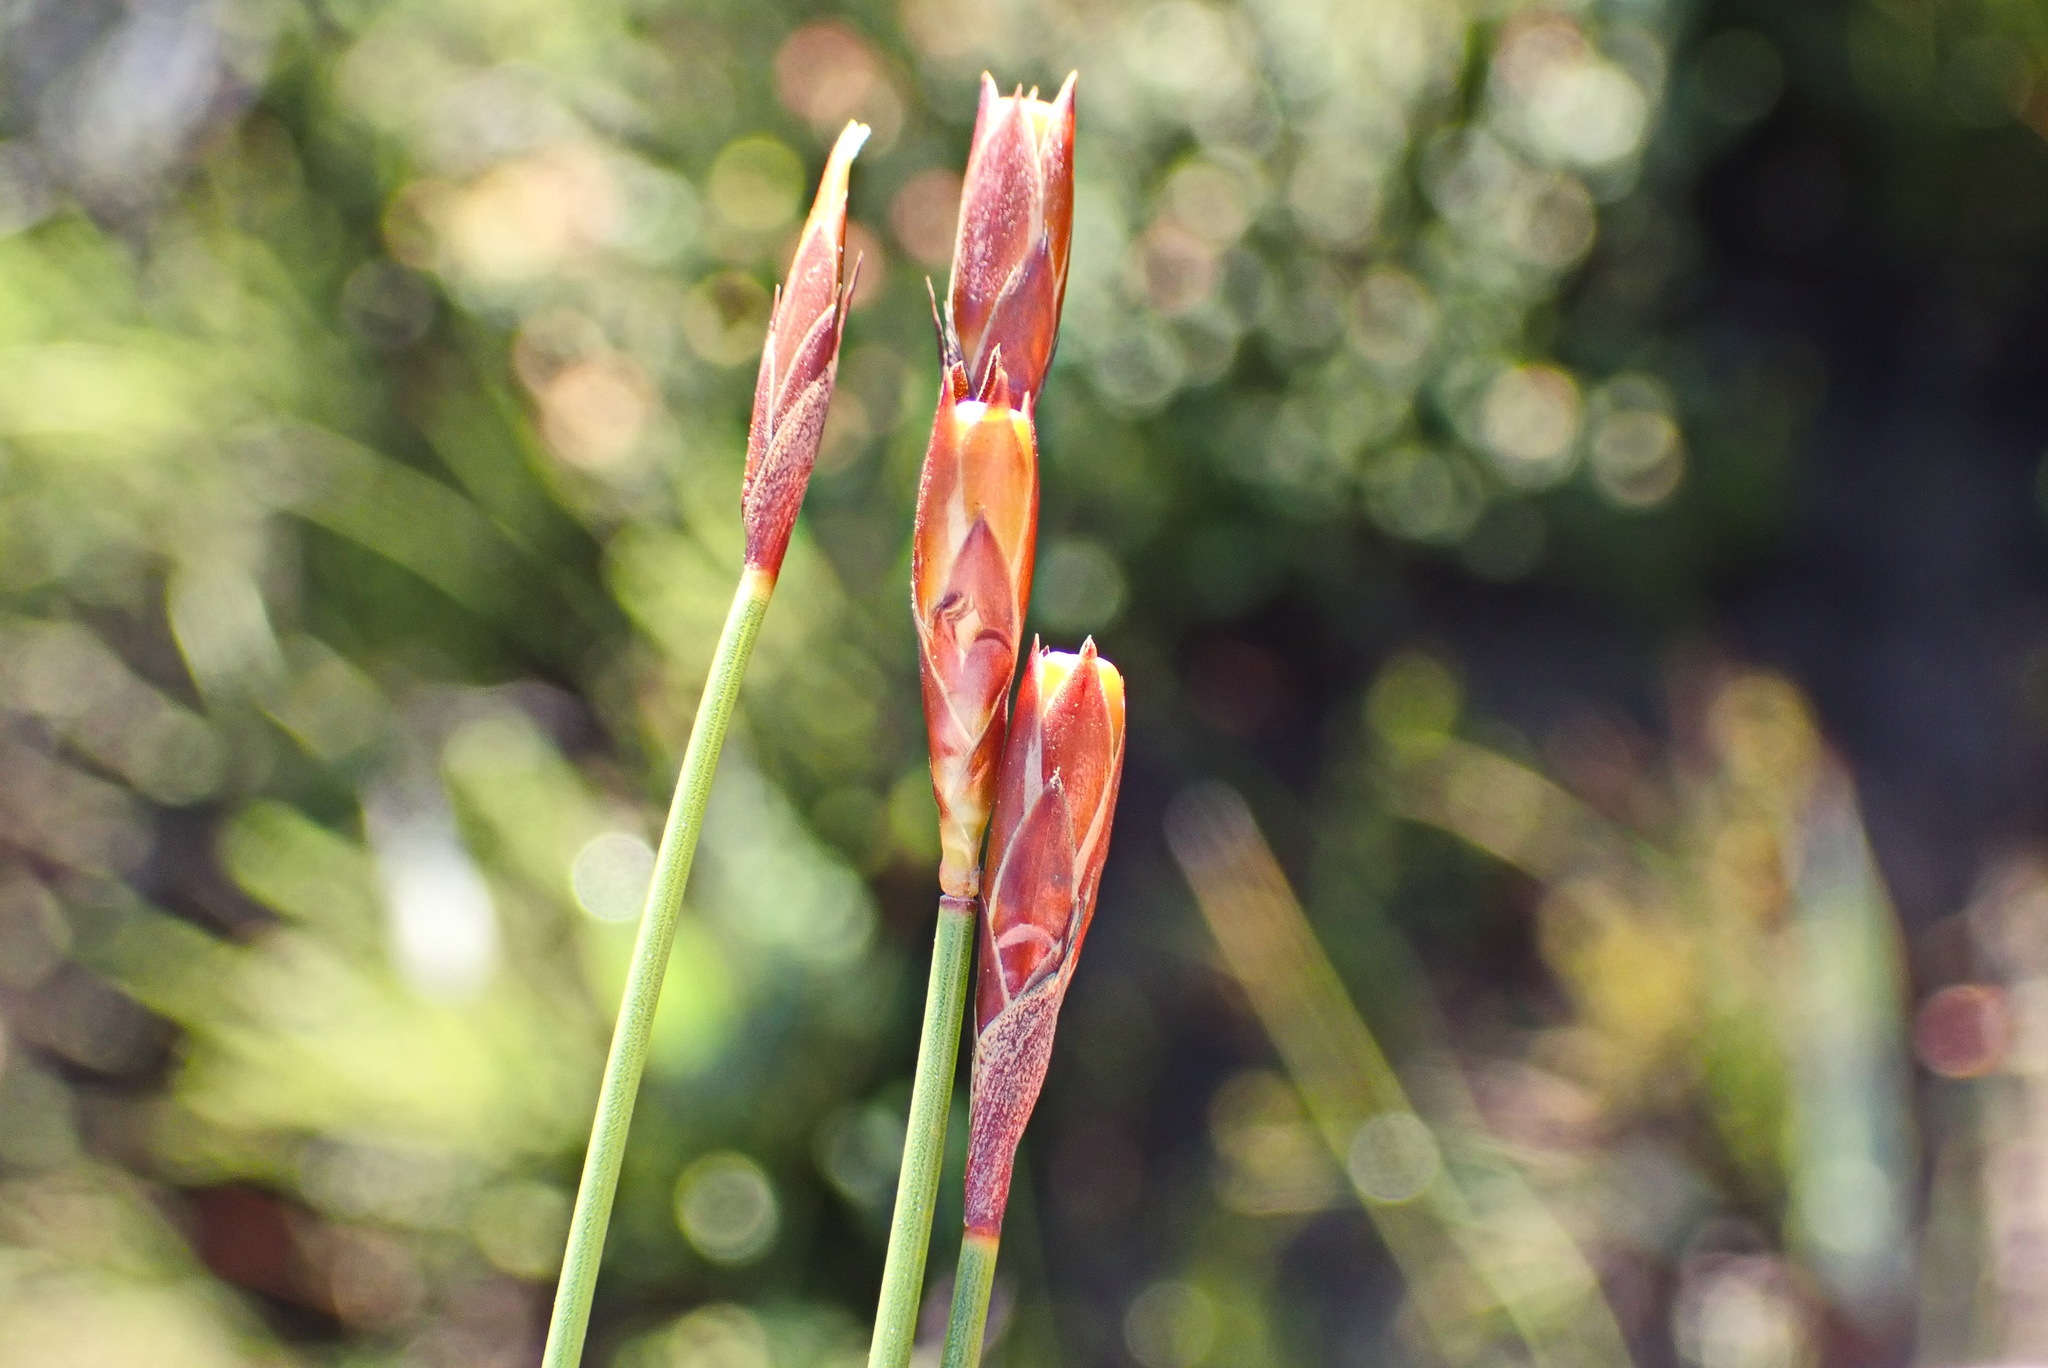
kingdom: Plantae
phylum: Tracheophyta
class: Liliopsida
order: Poales
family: Restionaceae
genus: Hypodiscus
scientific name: Hypodiscus striatus
